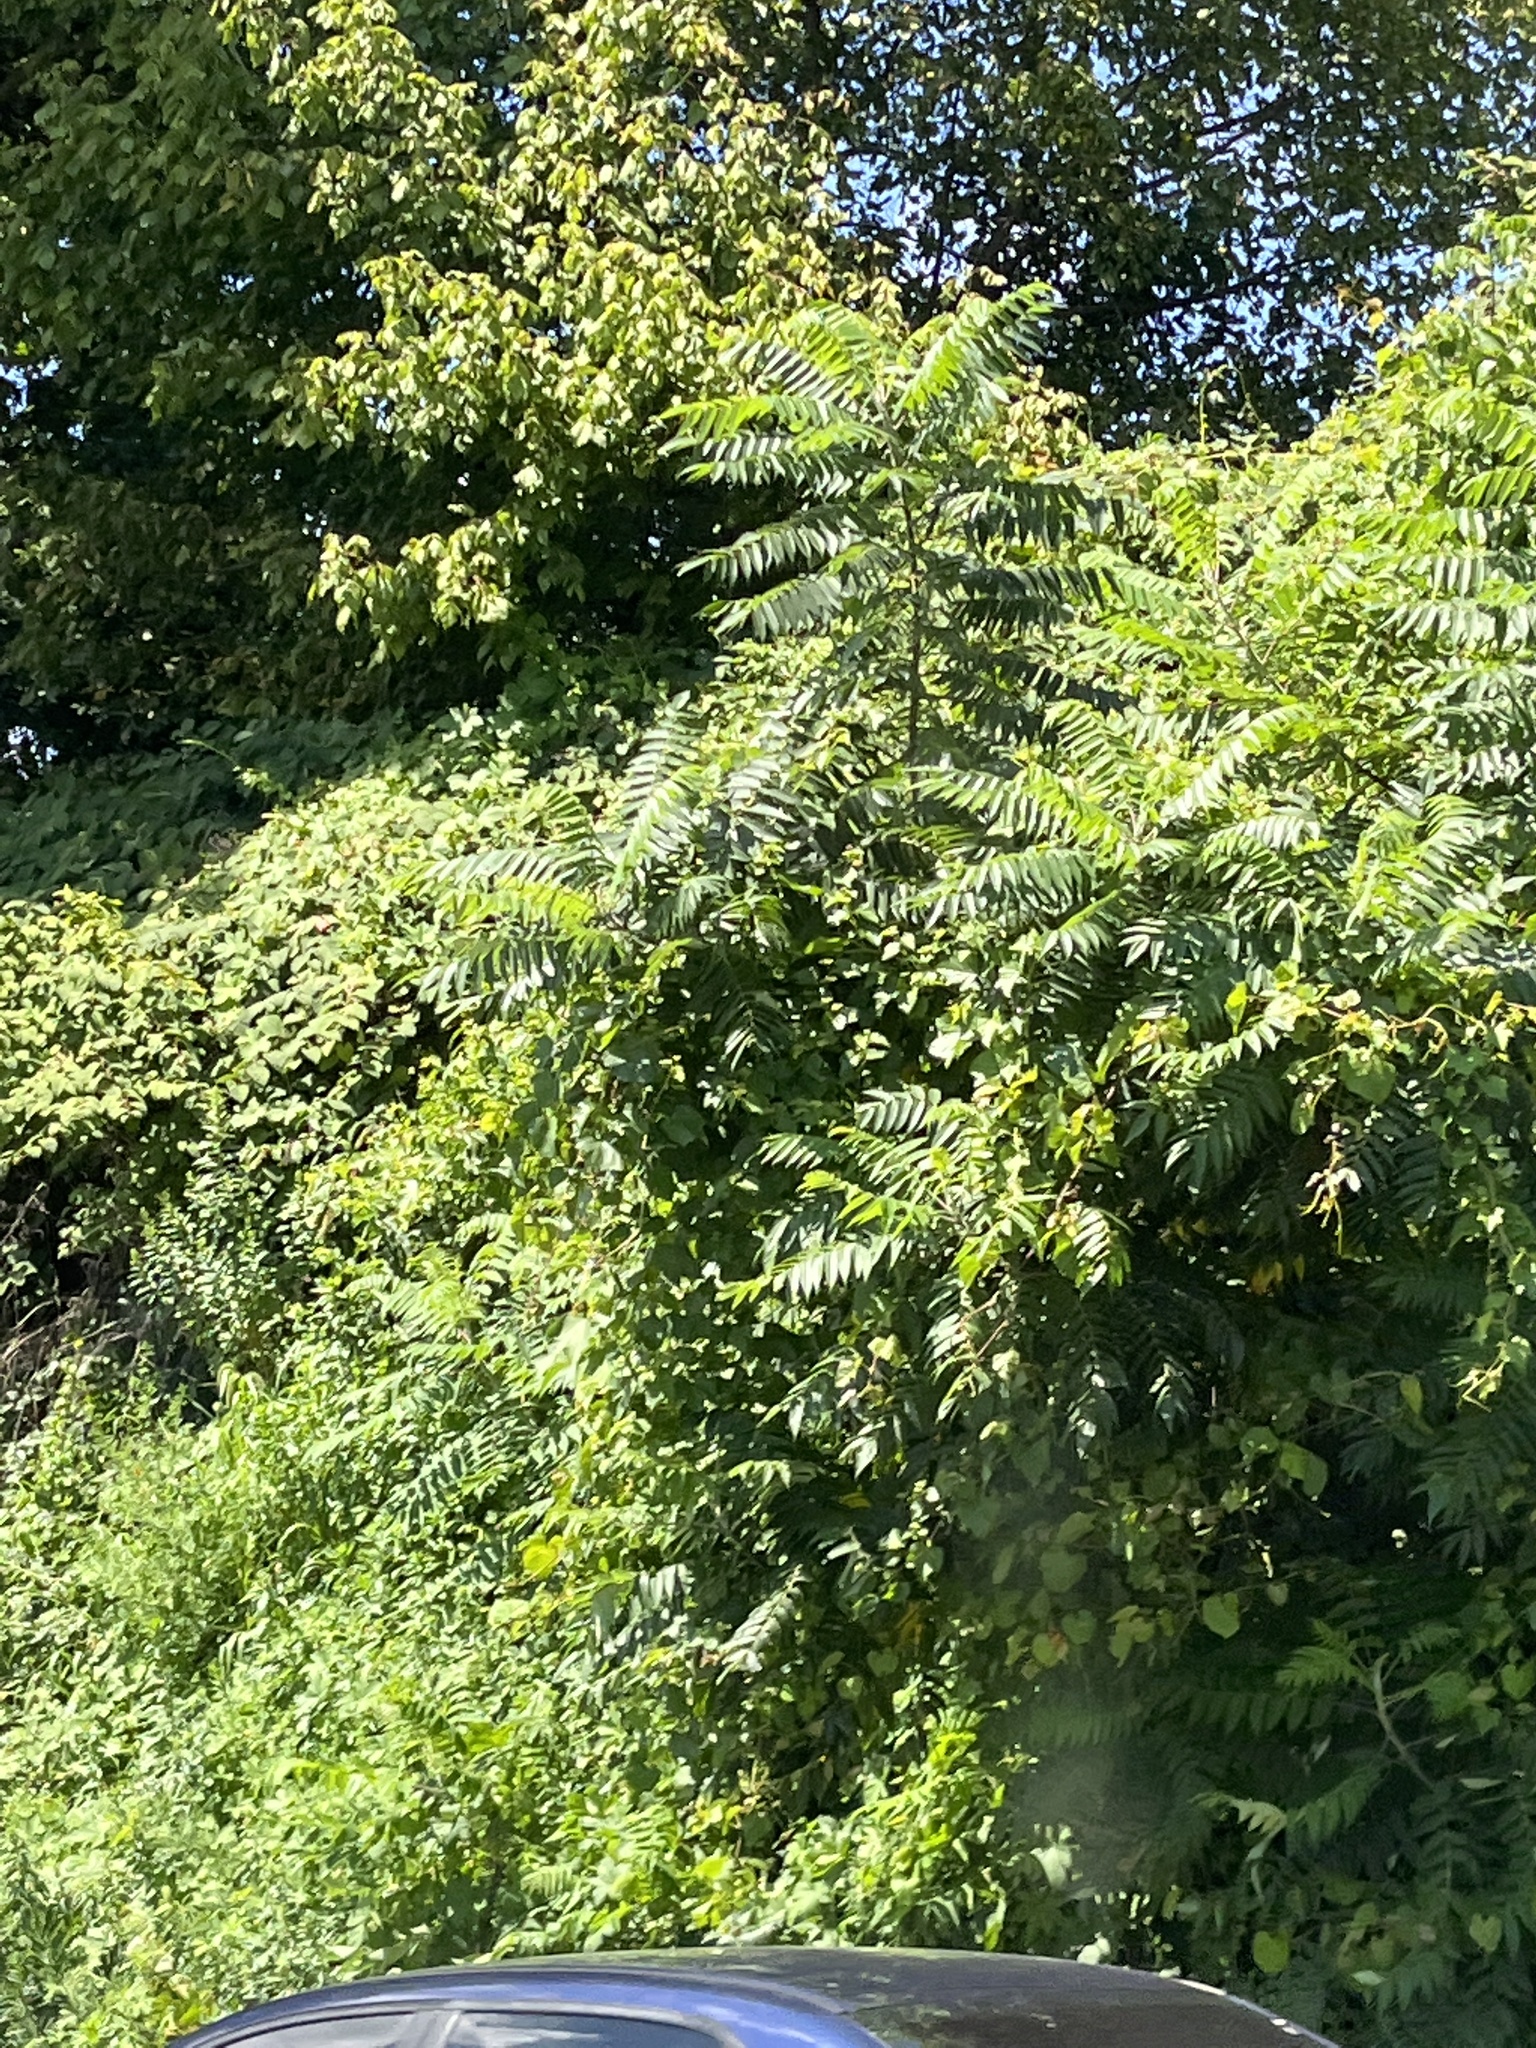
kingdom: Plantae
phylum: Tracheophyta
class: Magnoliopsida
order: Sapindales
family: Simaroubaceae
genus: Ailanthus
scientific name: Ailanthus altissima
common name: Tree-of-heaven
